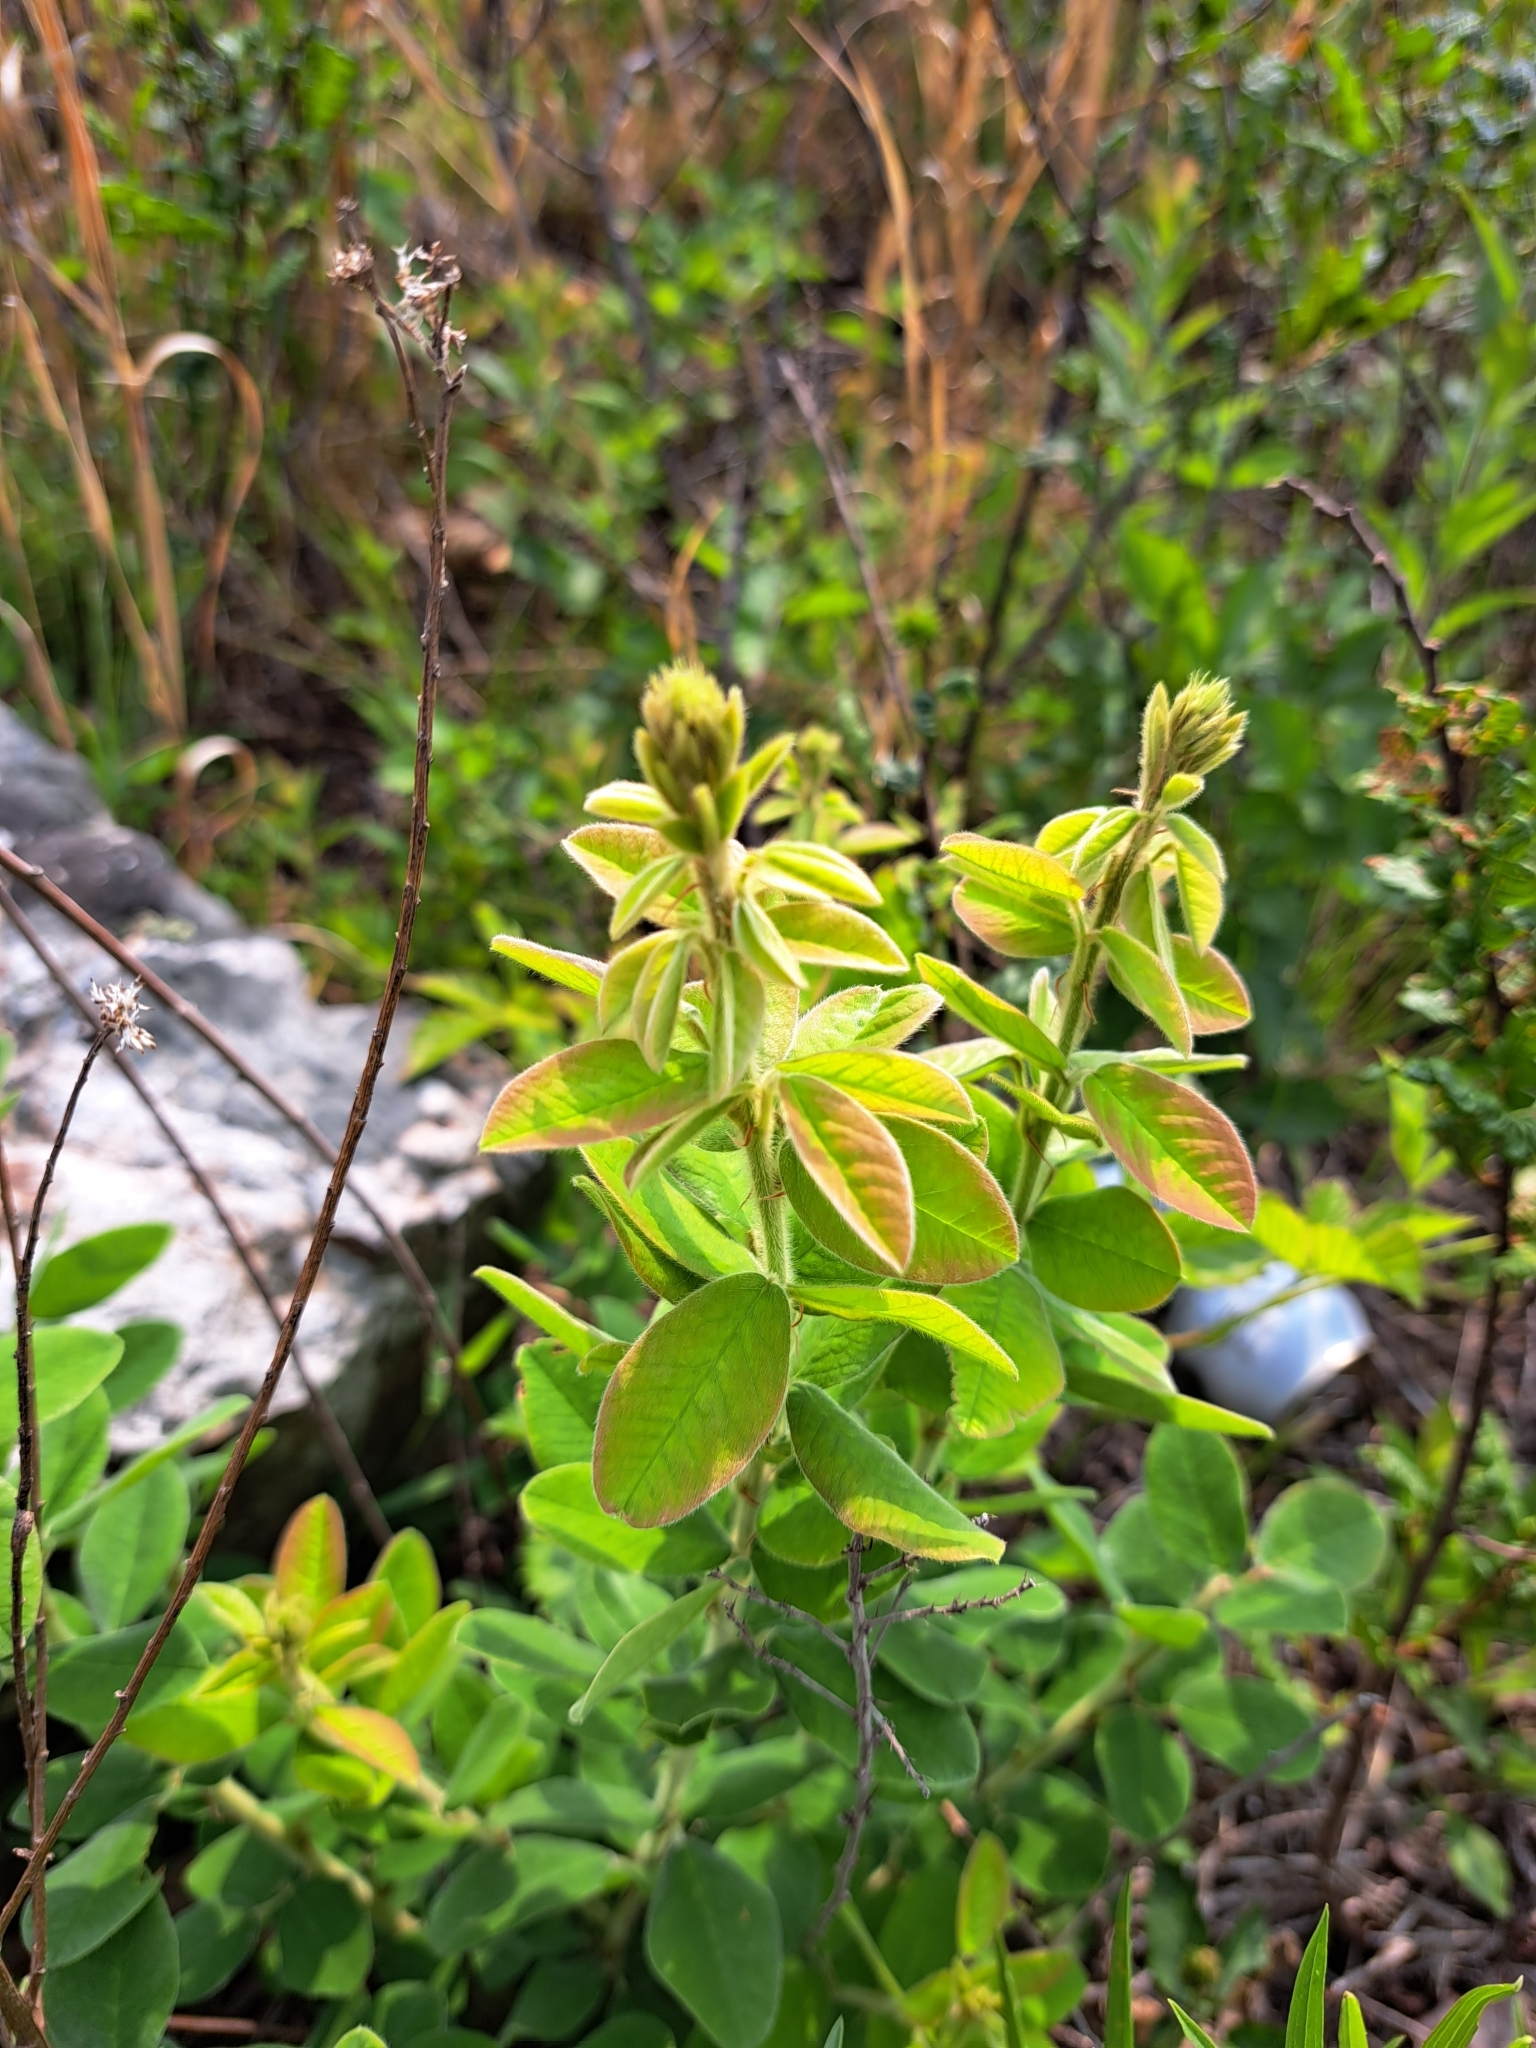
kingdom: Plantae
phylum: Tracheophyta
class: Magnoliopsida
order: Fabales
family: Fabaceae
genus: Lespedeza
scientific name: Lespedeza hirta
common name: Hairy lespedeza
